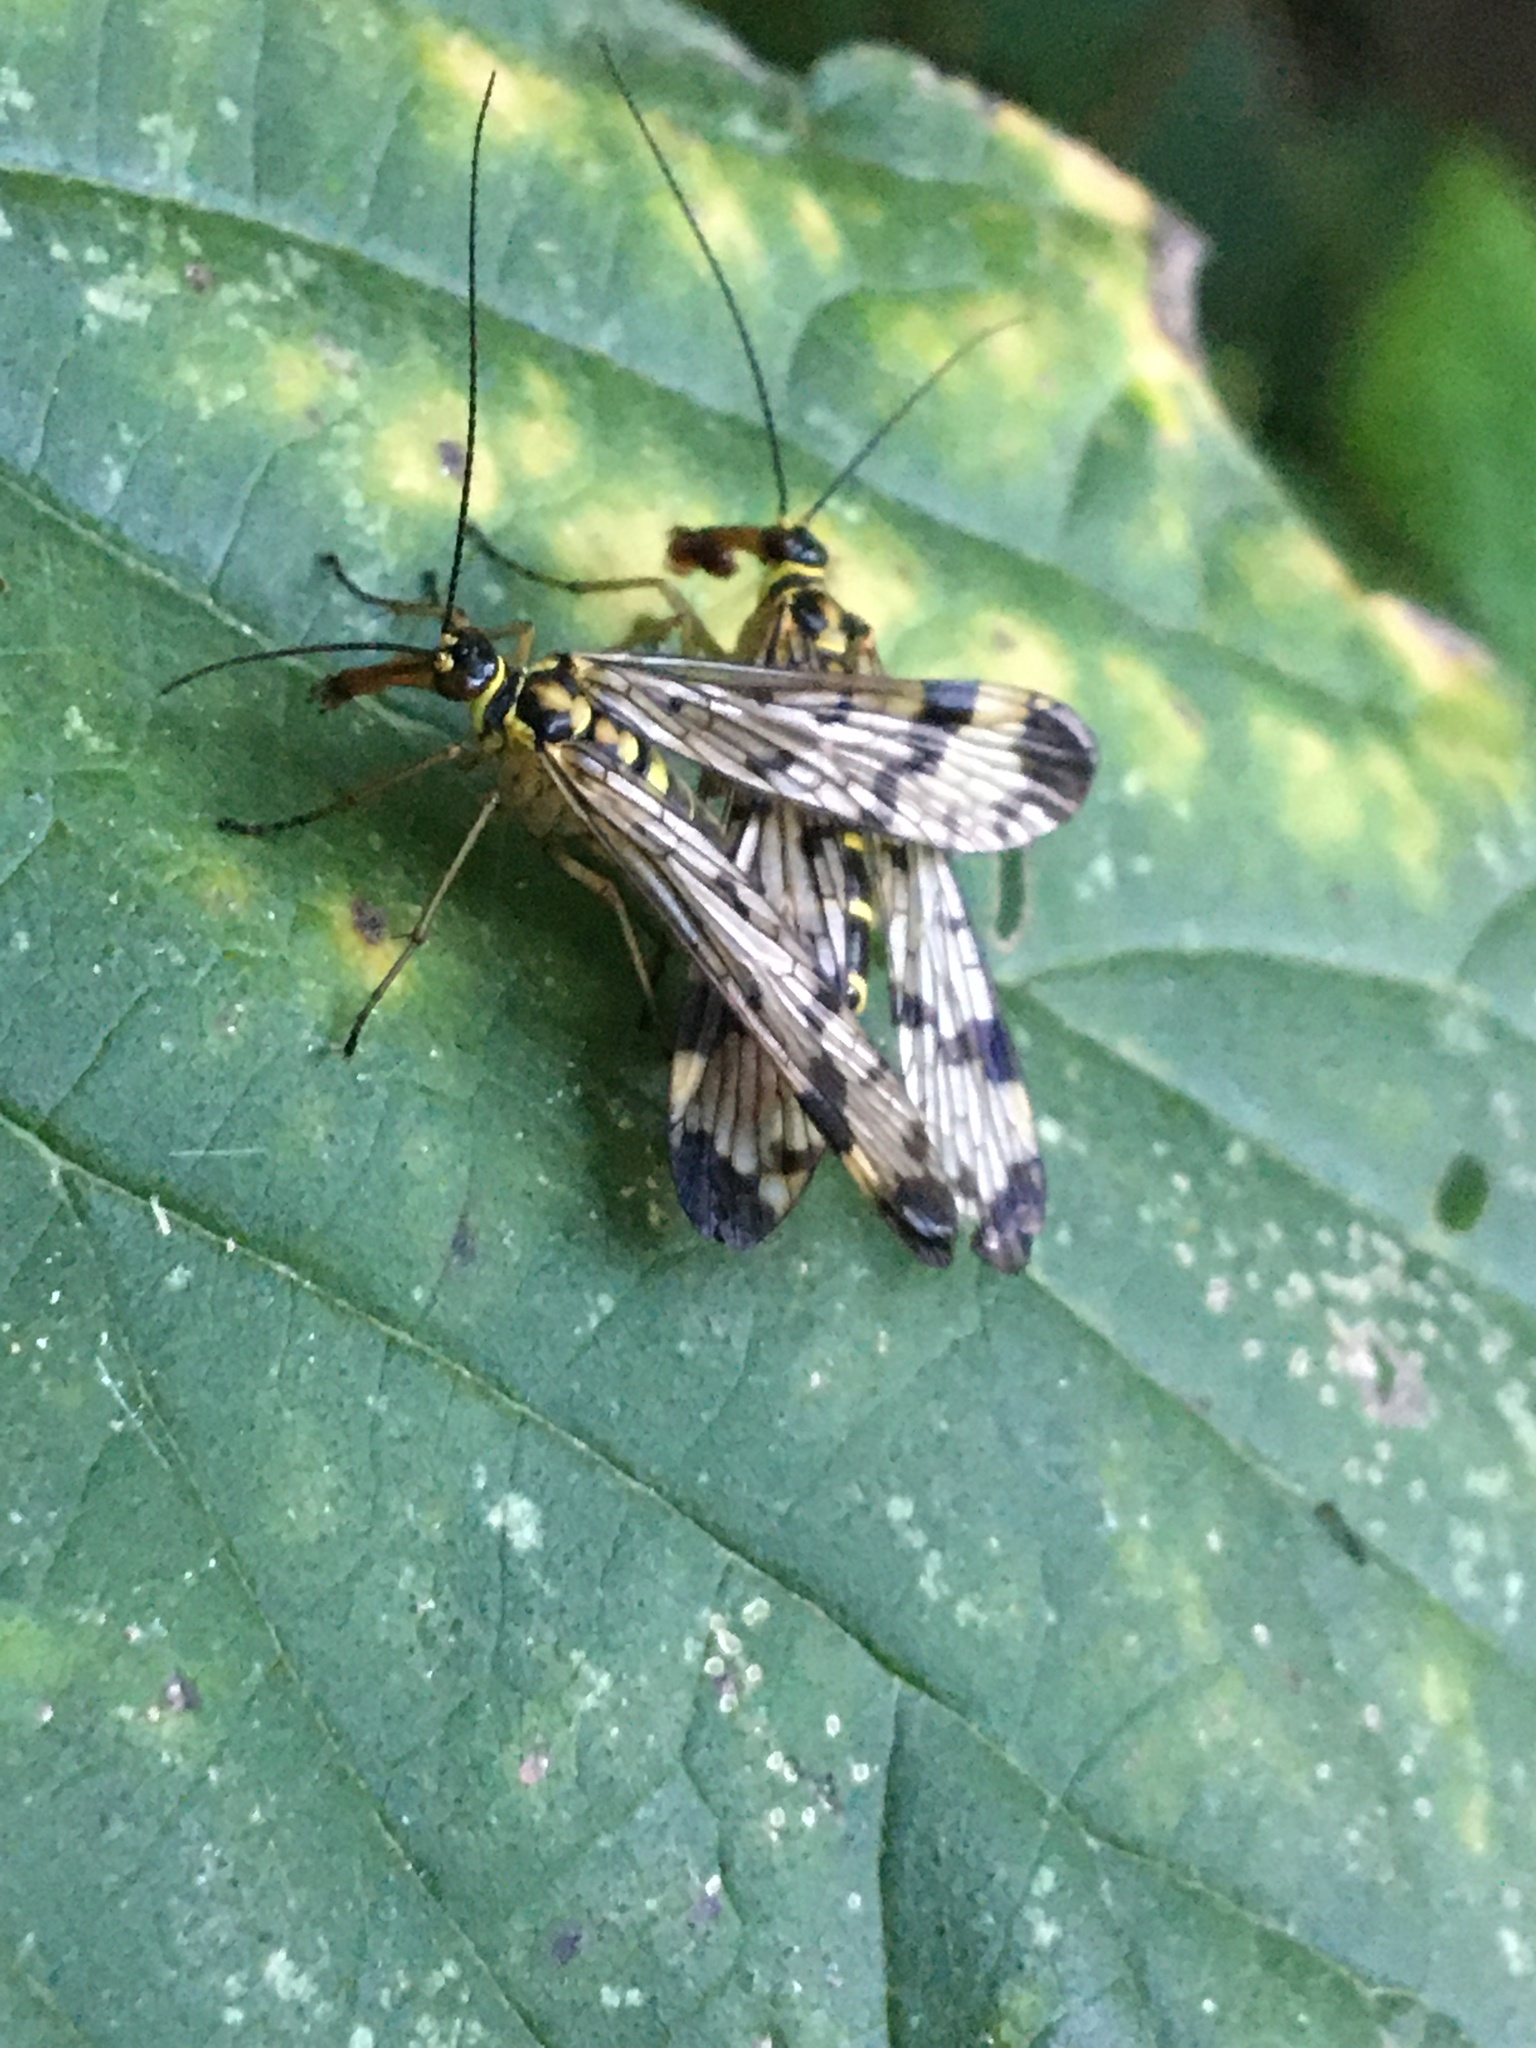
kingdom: Animalia
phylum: Arthropoda
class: Insecta
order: Mecoptera
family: Panorpidae
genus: Panorpa
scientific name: Panorpa communis
